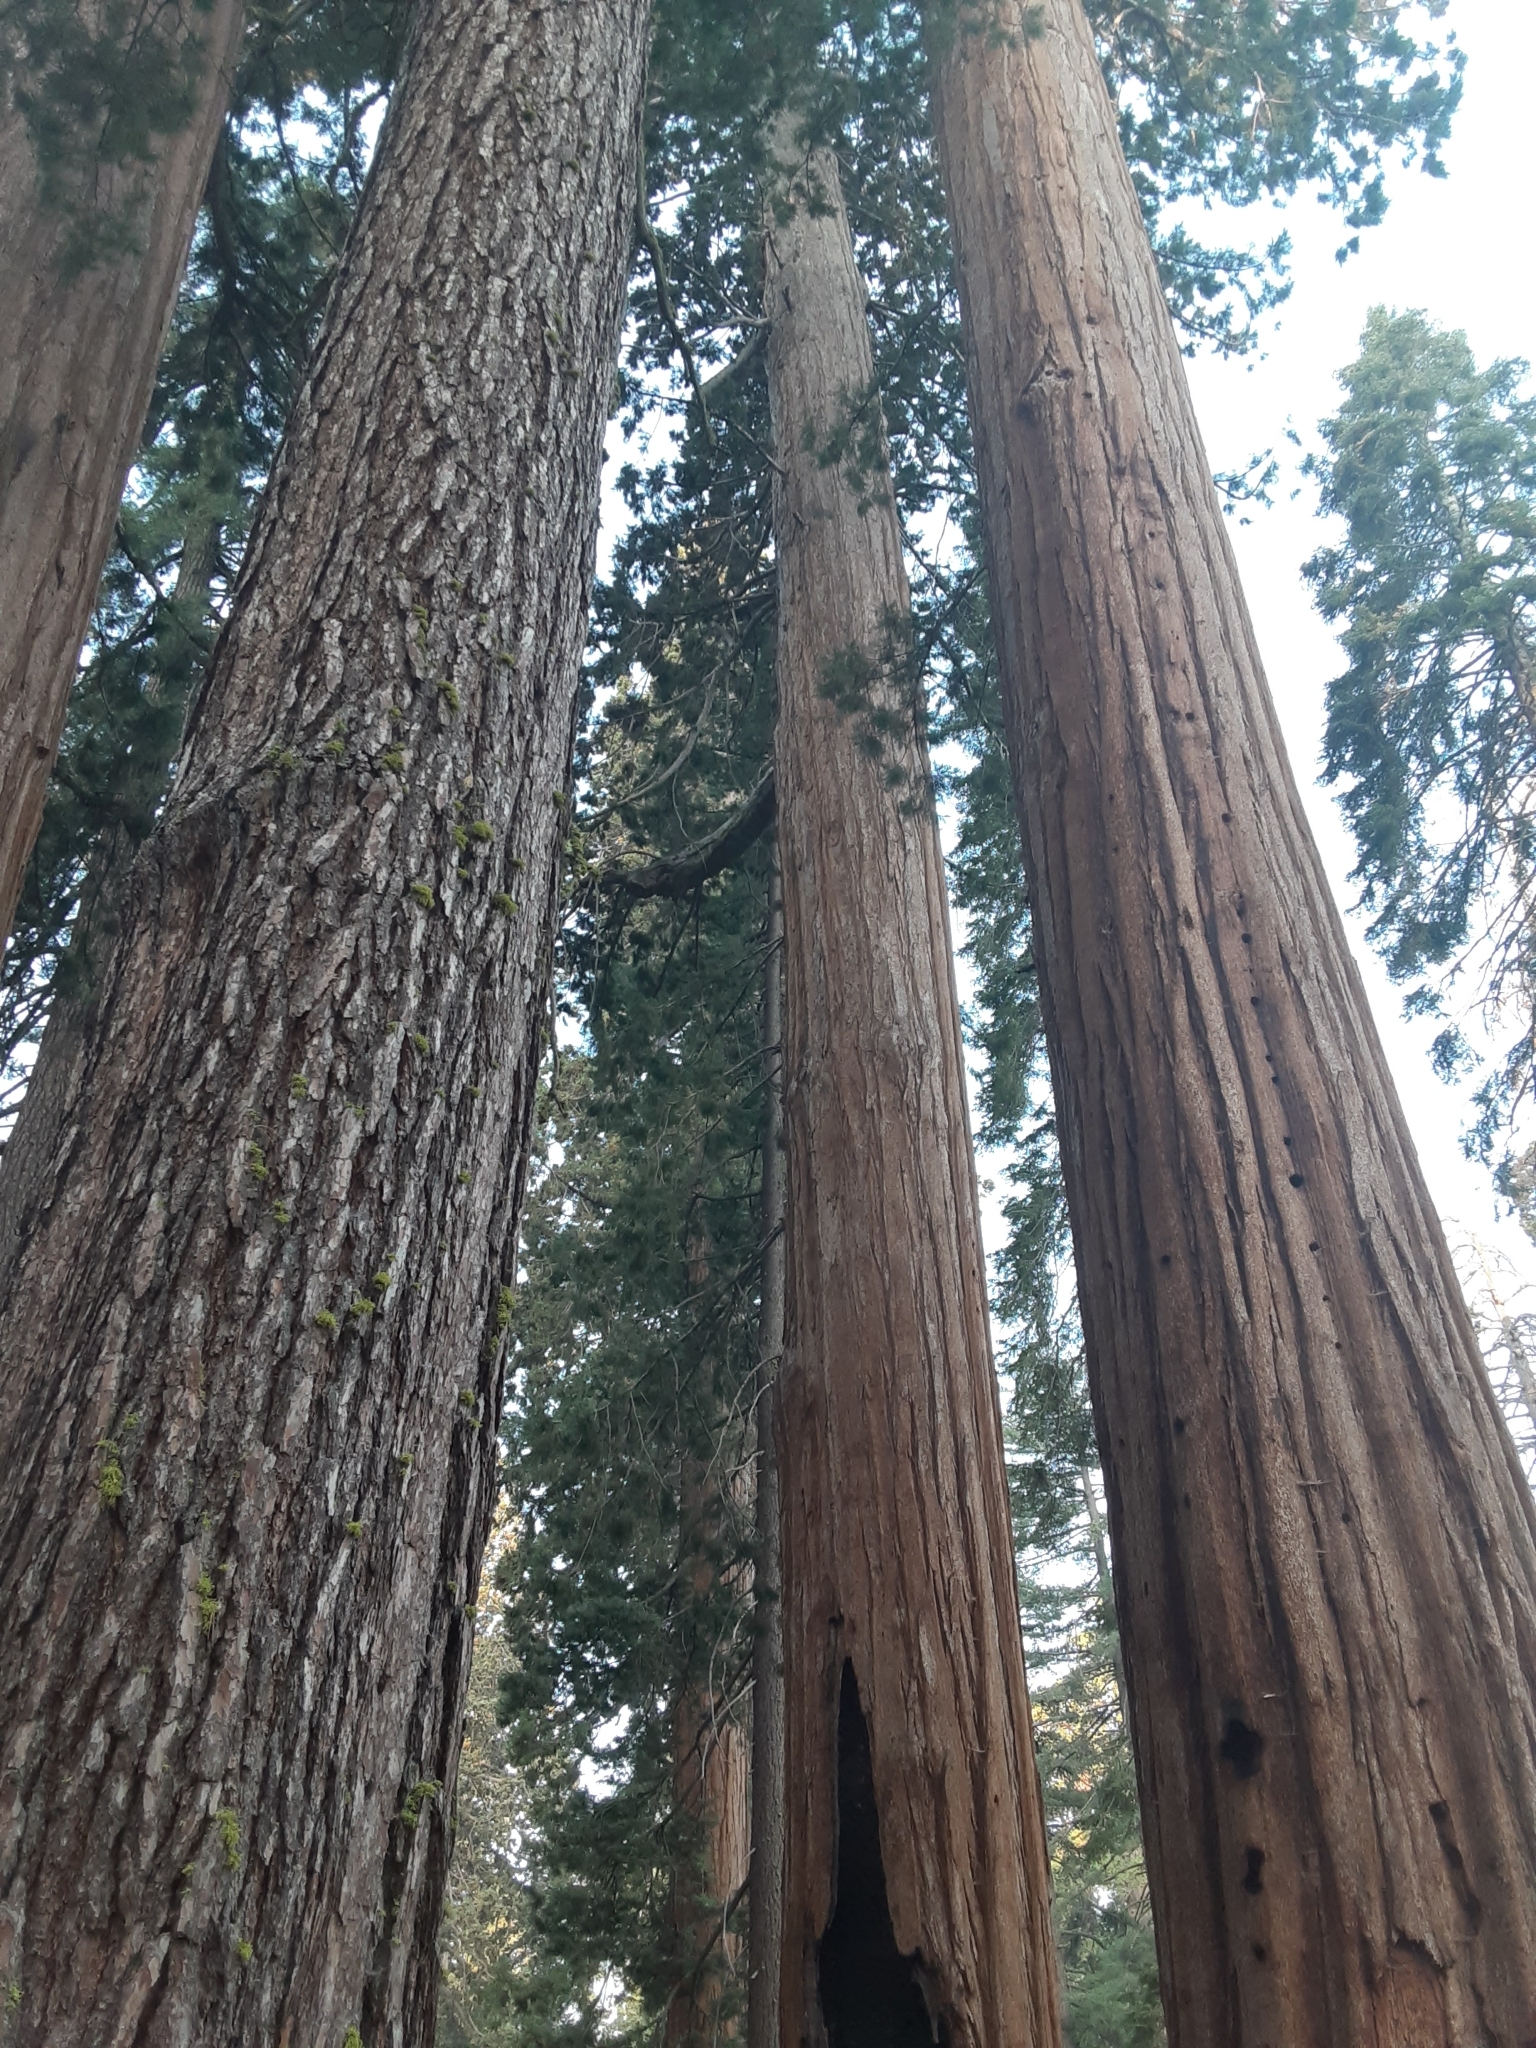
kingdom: Plantae
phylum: Tracheophyta
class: Pinopsida
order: Pinales
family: Cupressaceae
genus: Sequoiadendron
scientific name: Sequoiadendron giganteum
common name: Wellingtonia
